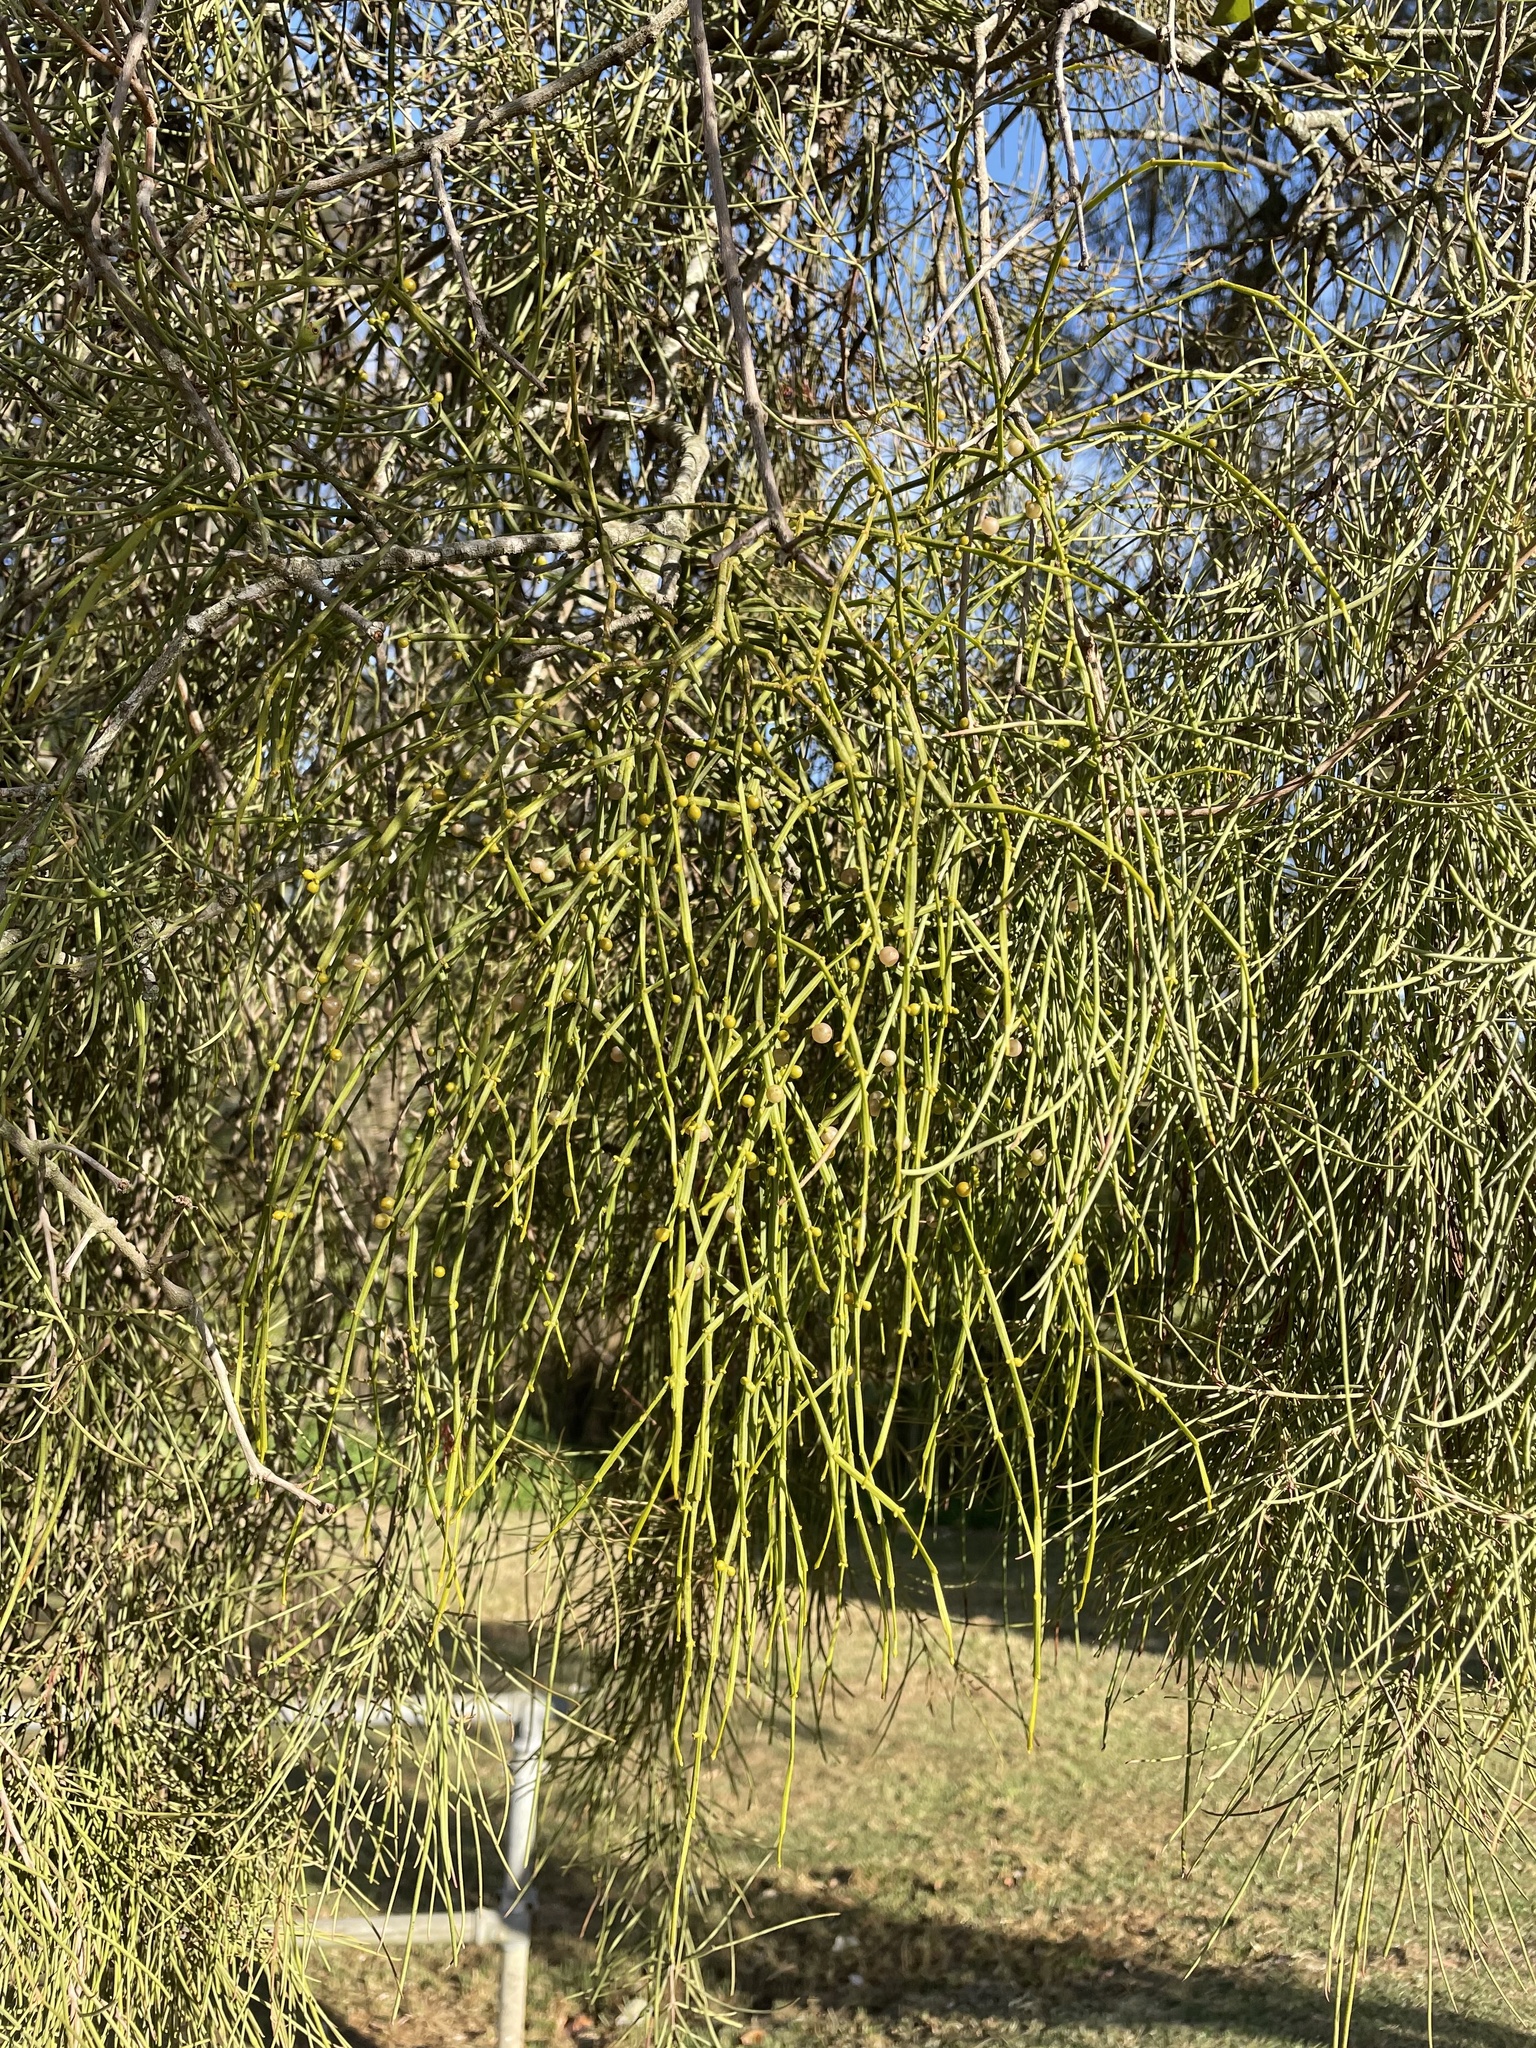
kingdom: Plantae
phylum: Tracheophyta
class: Magnoliopsida
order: Santalales
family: Viscaceae
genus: Viscum
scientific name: Viscum articulatum
